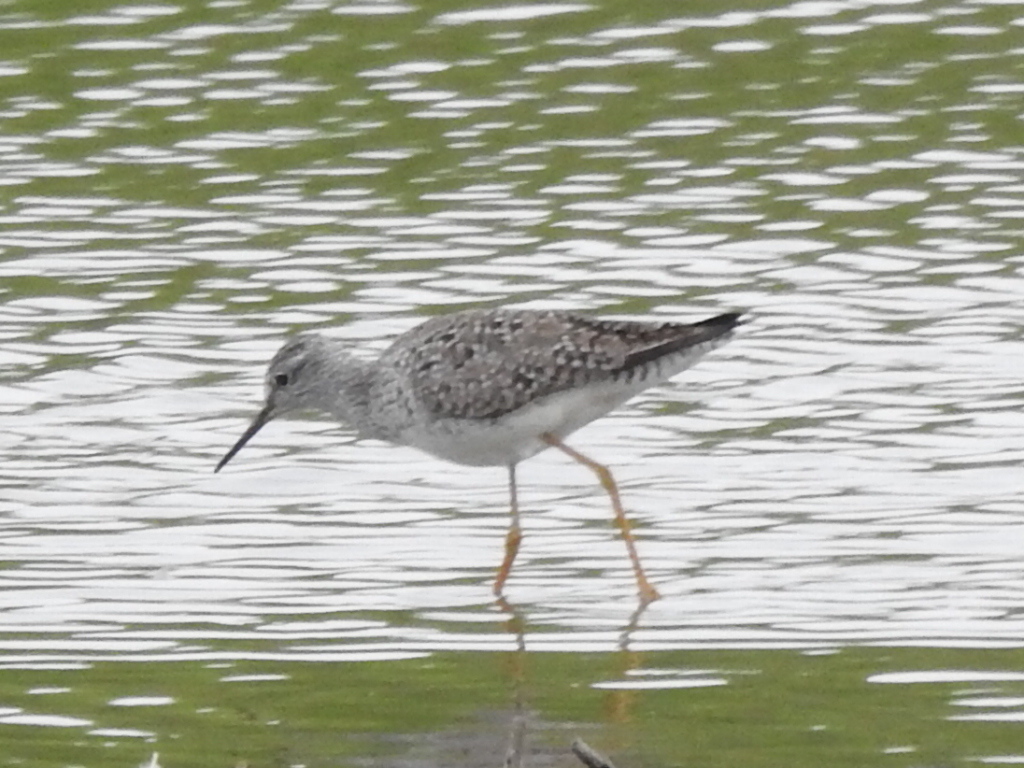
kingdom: Animalia
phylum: Chordata
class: Aves
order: Charadriiformes
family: Scolopacidae
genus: Tringa
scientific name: Tringa flavipes
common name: Lesser yellowlegs
